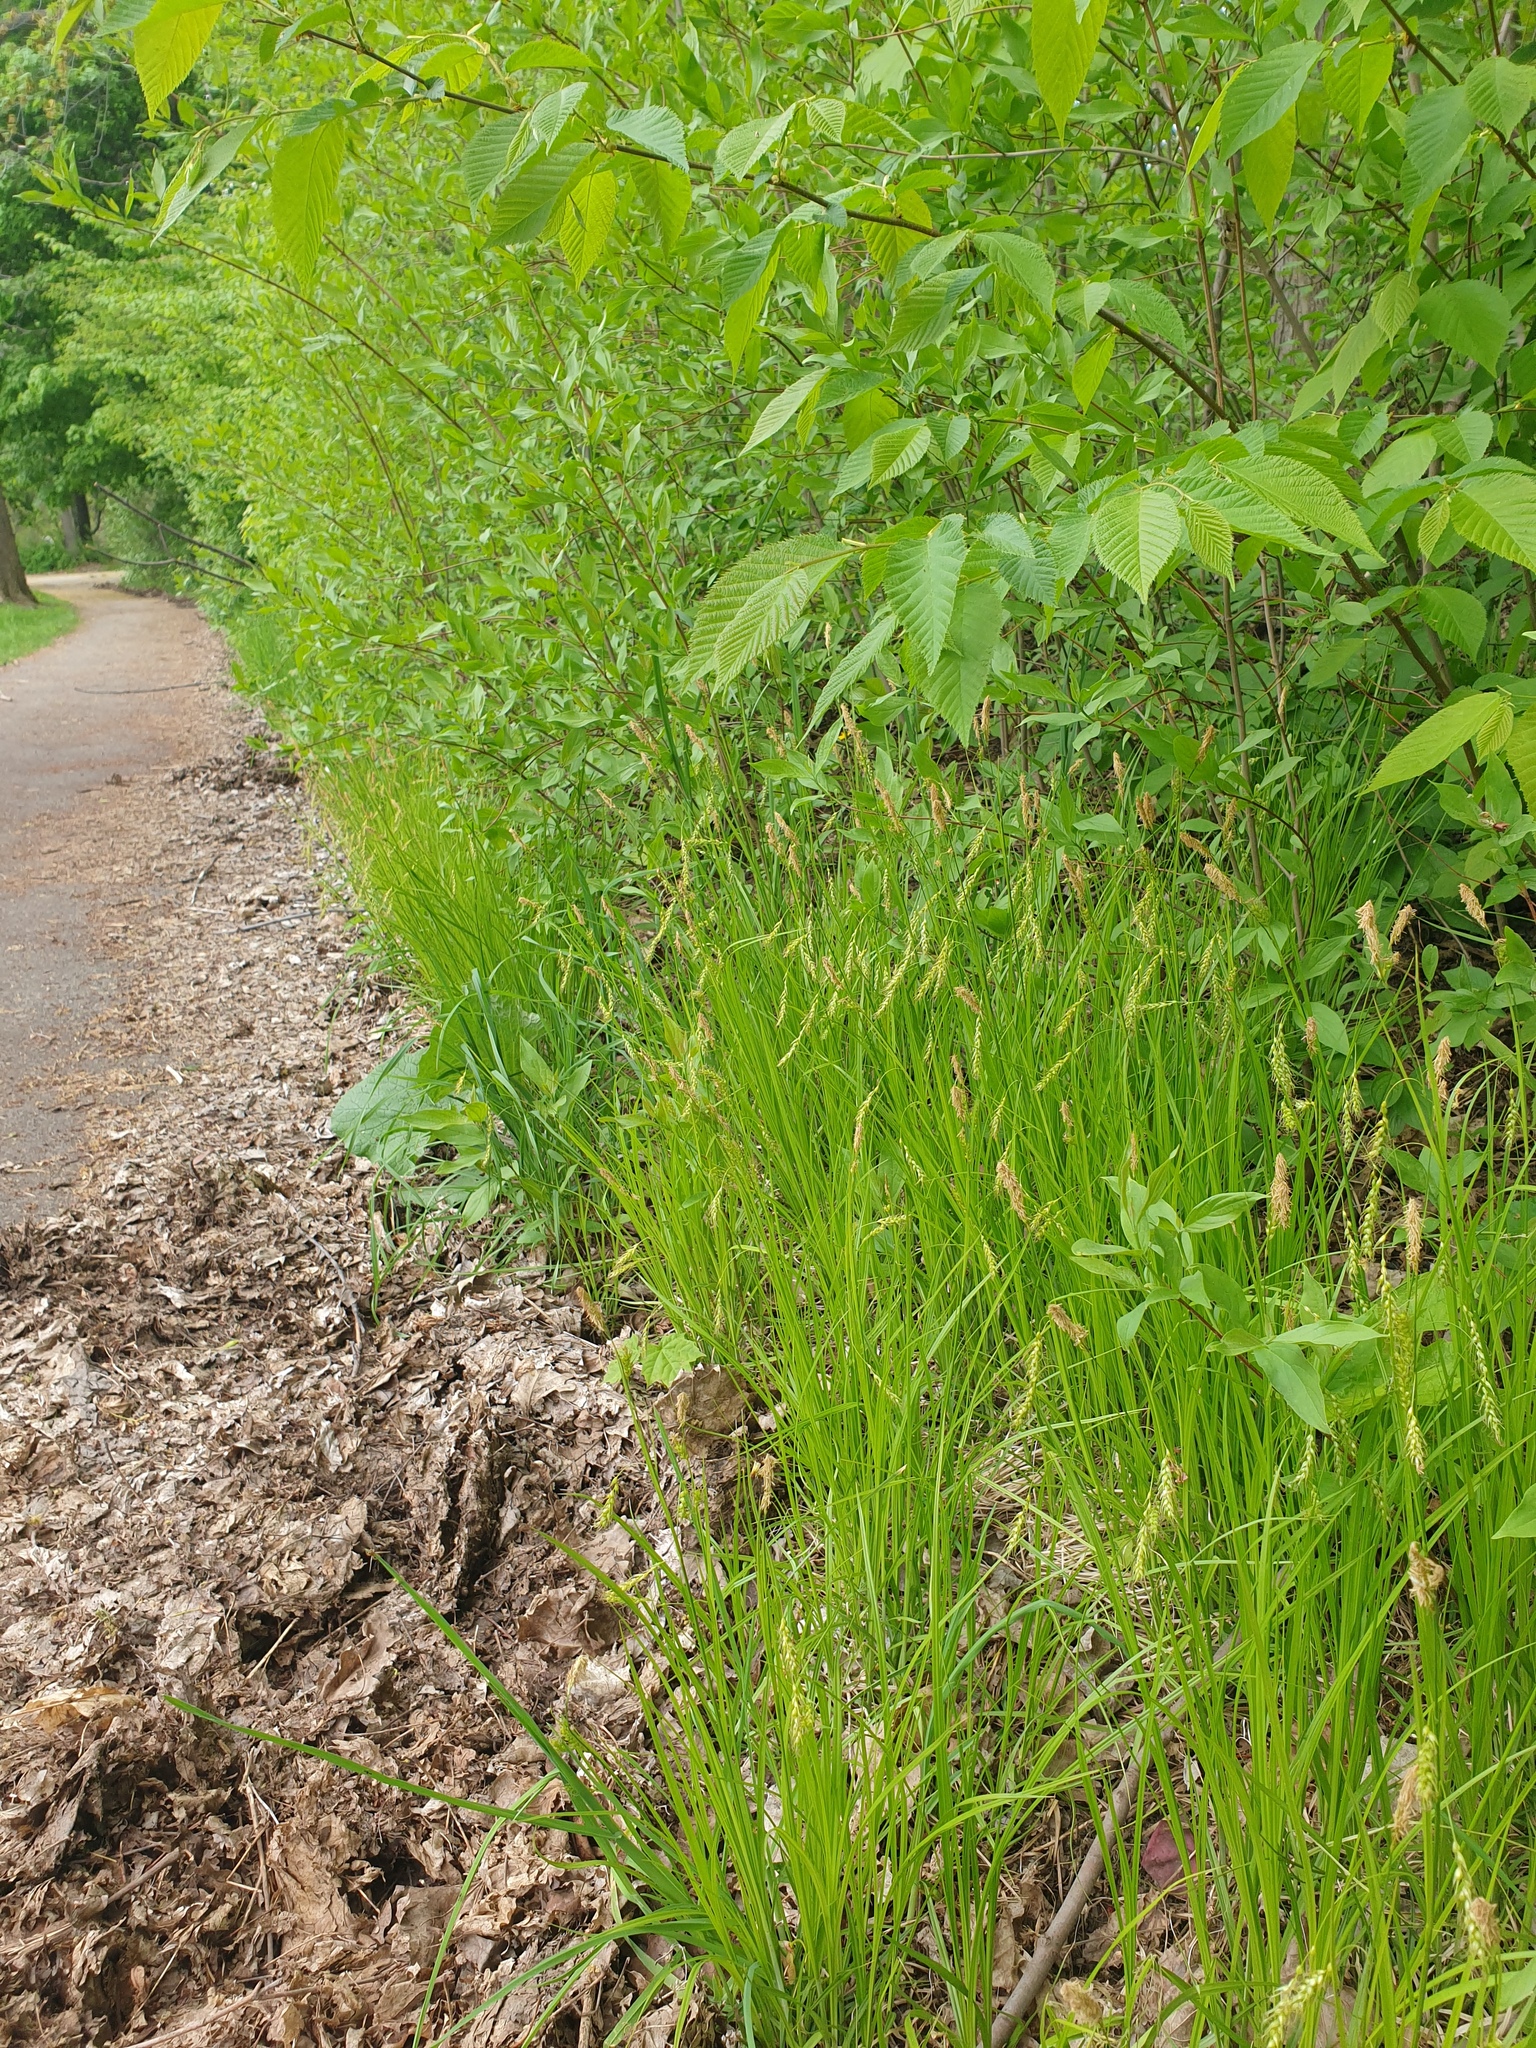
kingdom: Plantae
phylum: Tracheophyta
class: Liliopsida
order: Poales
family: Cyperaceae
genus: Carex
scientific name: Carex sprengelii
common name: Long-beaked sedge
